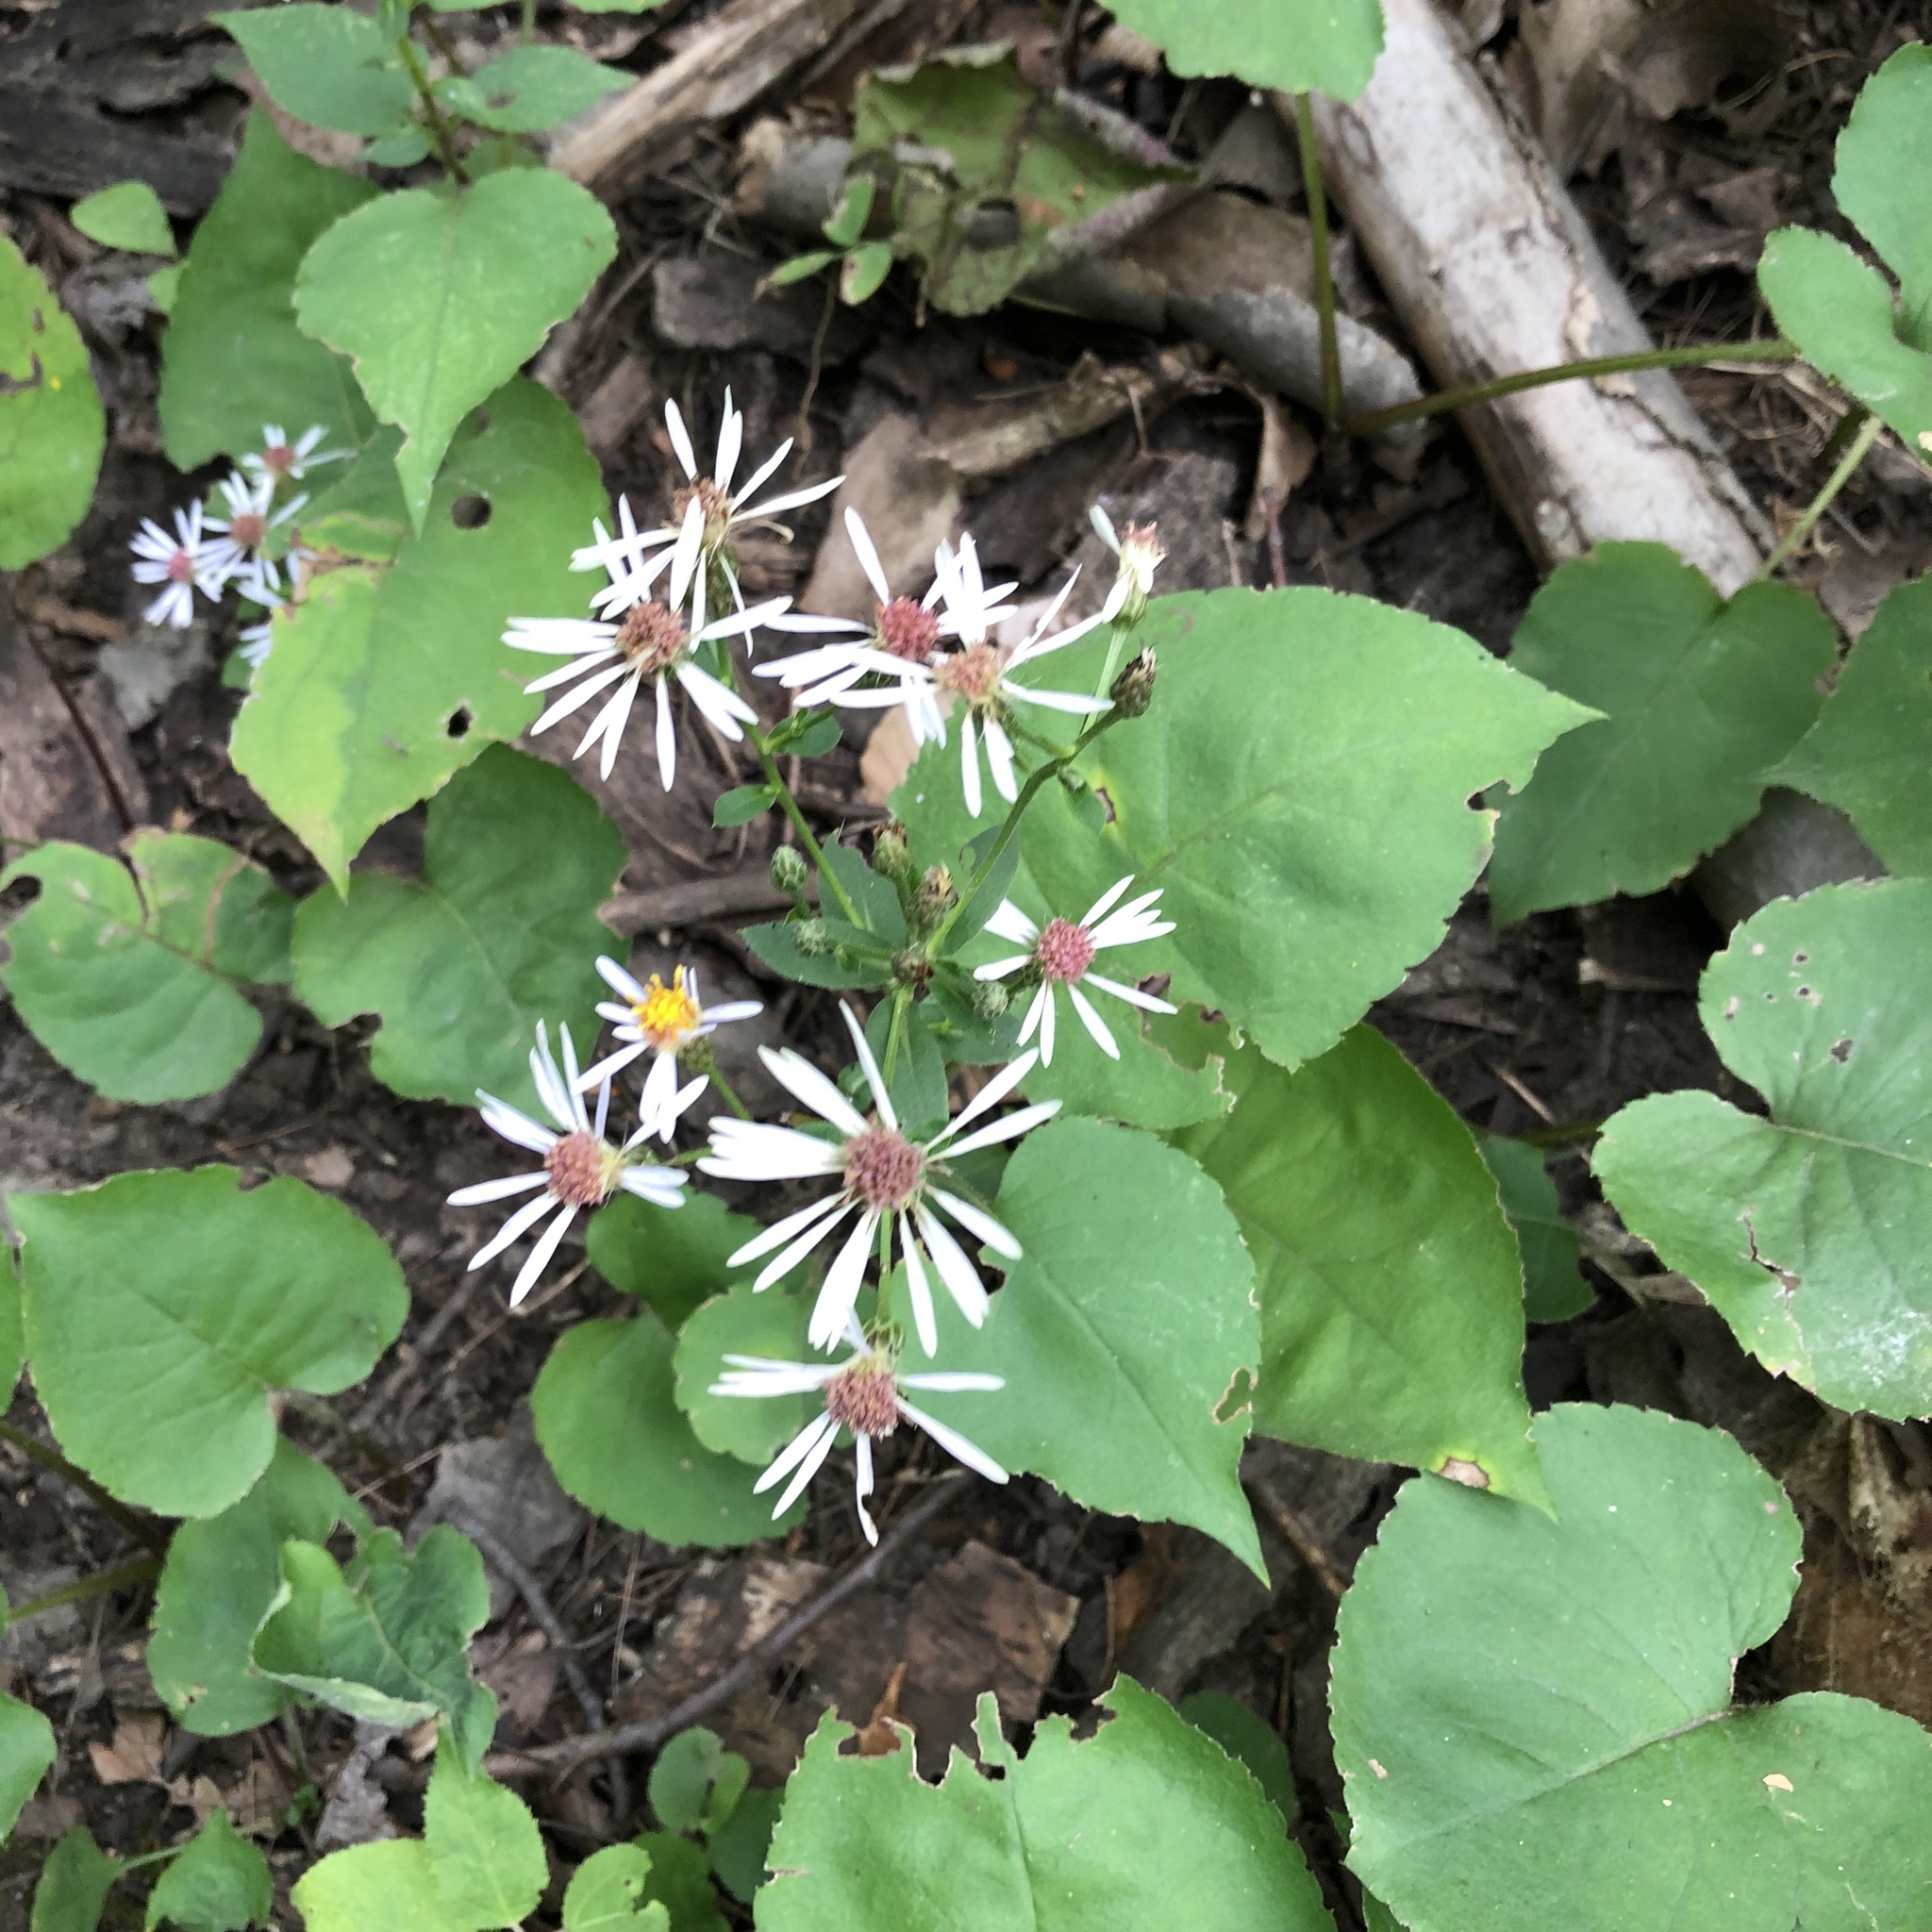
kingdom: Plantae
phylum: Tracheophyta
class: Magnoliopsida
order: Asterales
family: Asteraceae
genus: Eurybia
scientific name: Eurybia macrophylla
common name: Big-leaved aster
